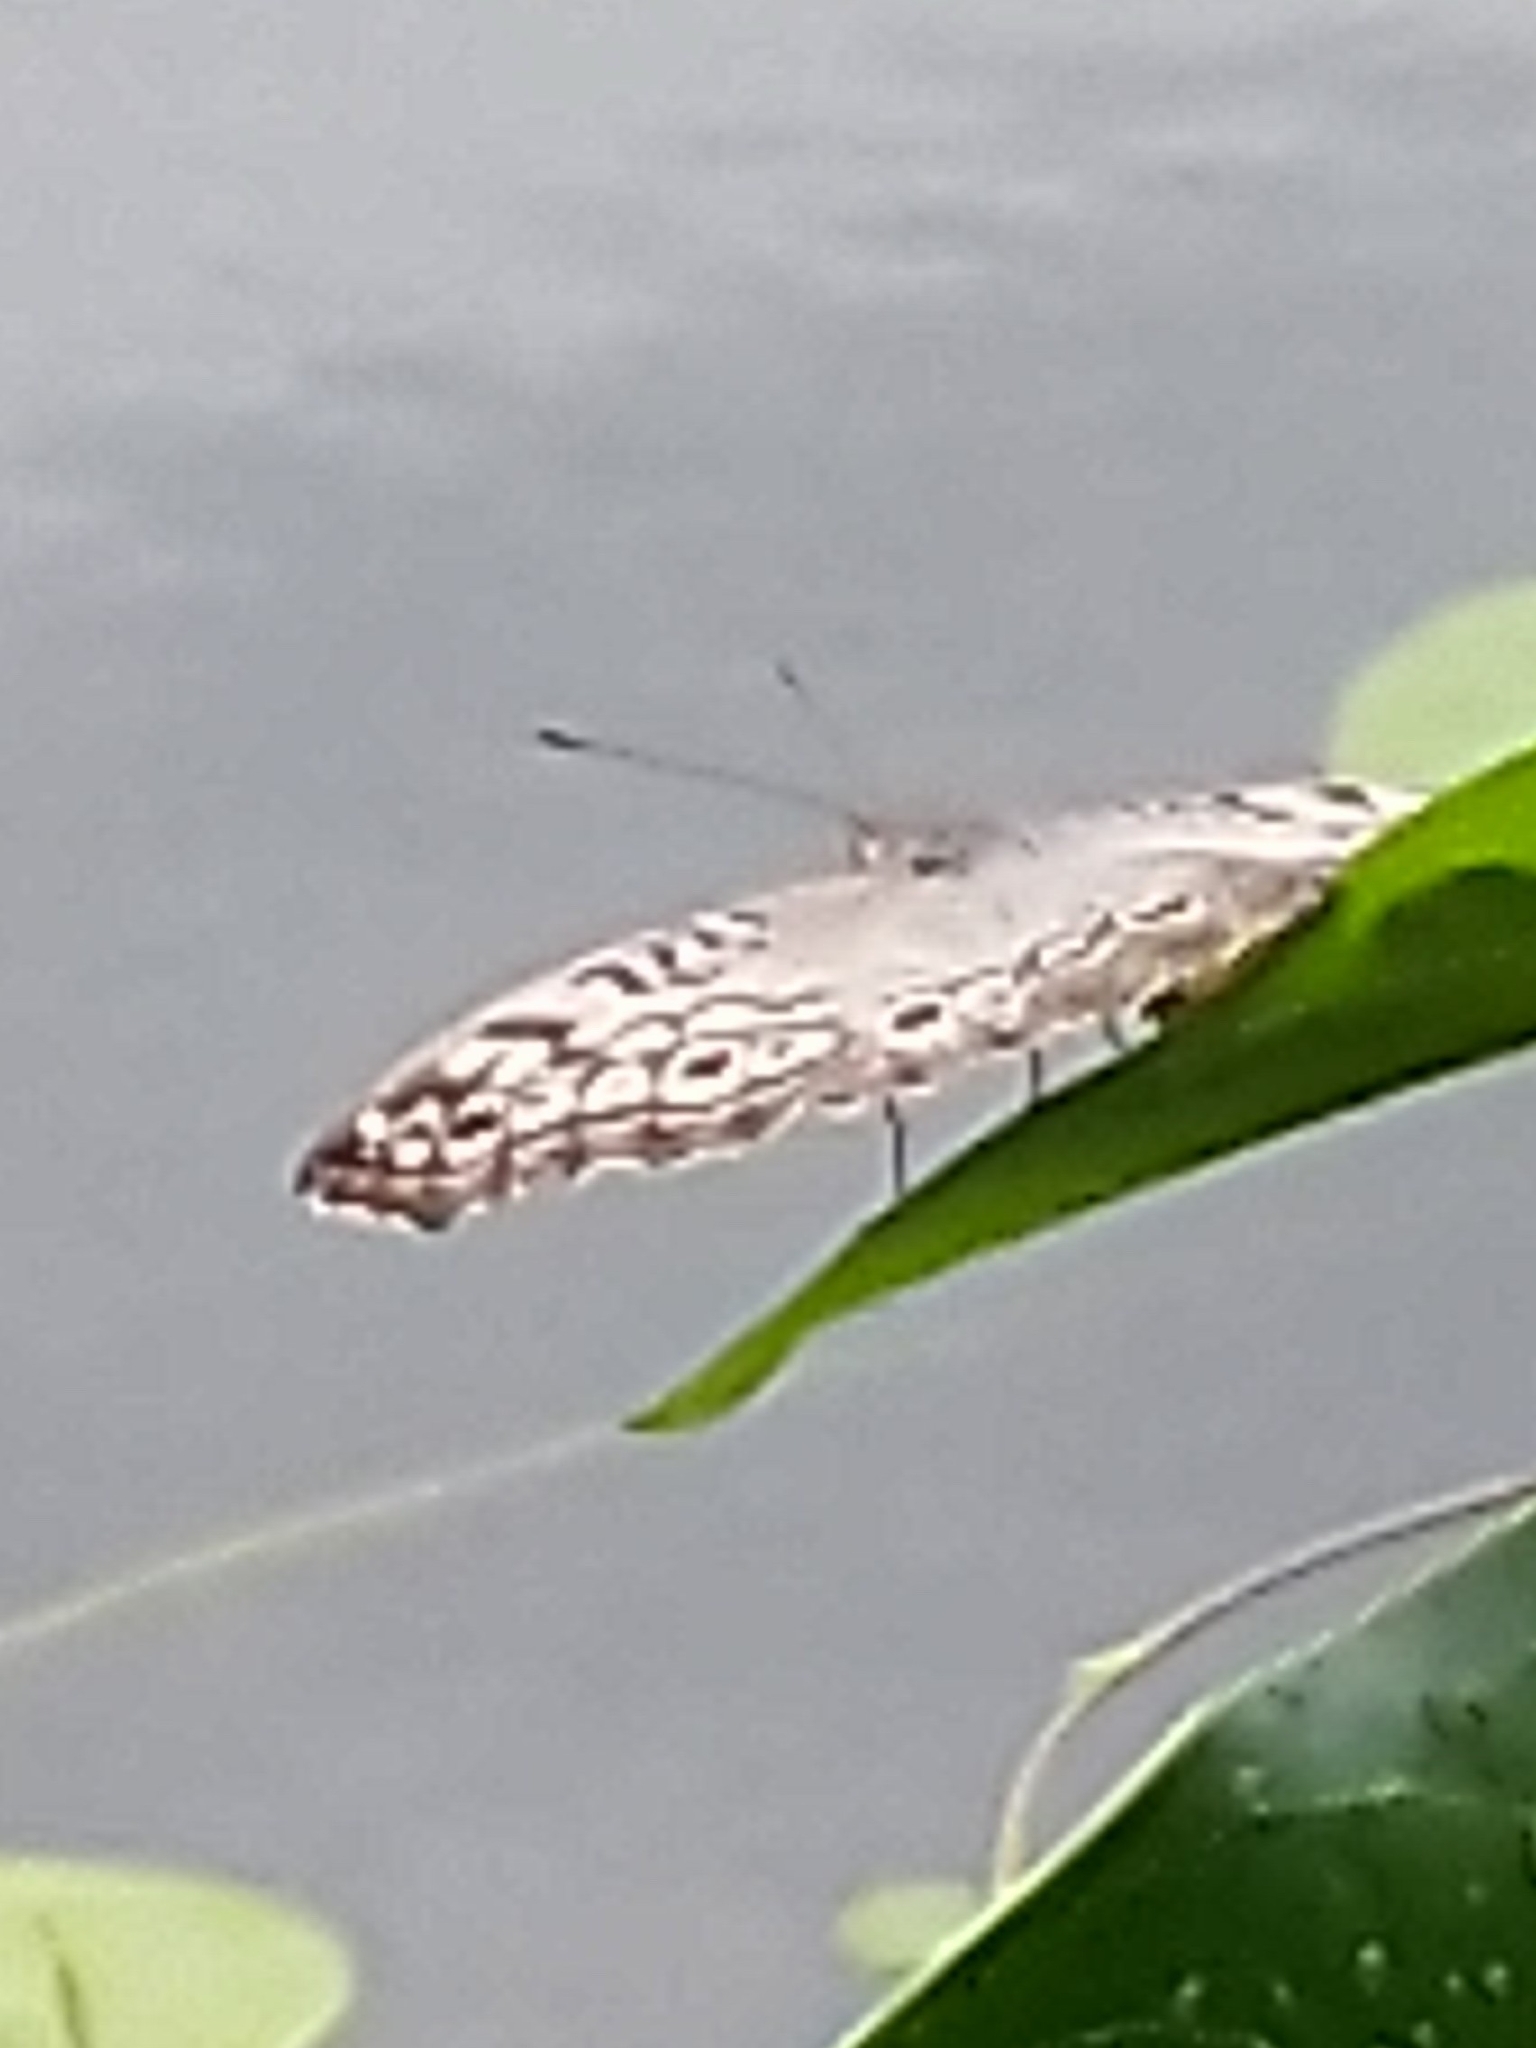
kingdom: Animalia
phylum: Arthropoda
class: Insecta
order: Lepidoptera
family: Nymphalidae
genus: Junonia
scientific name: Junonia atlites
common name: Grey pansy
